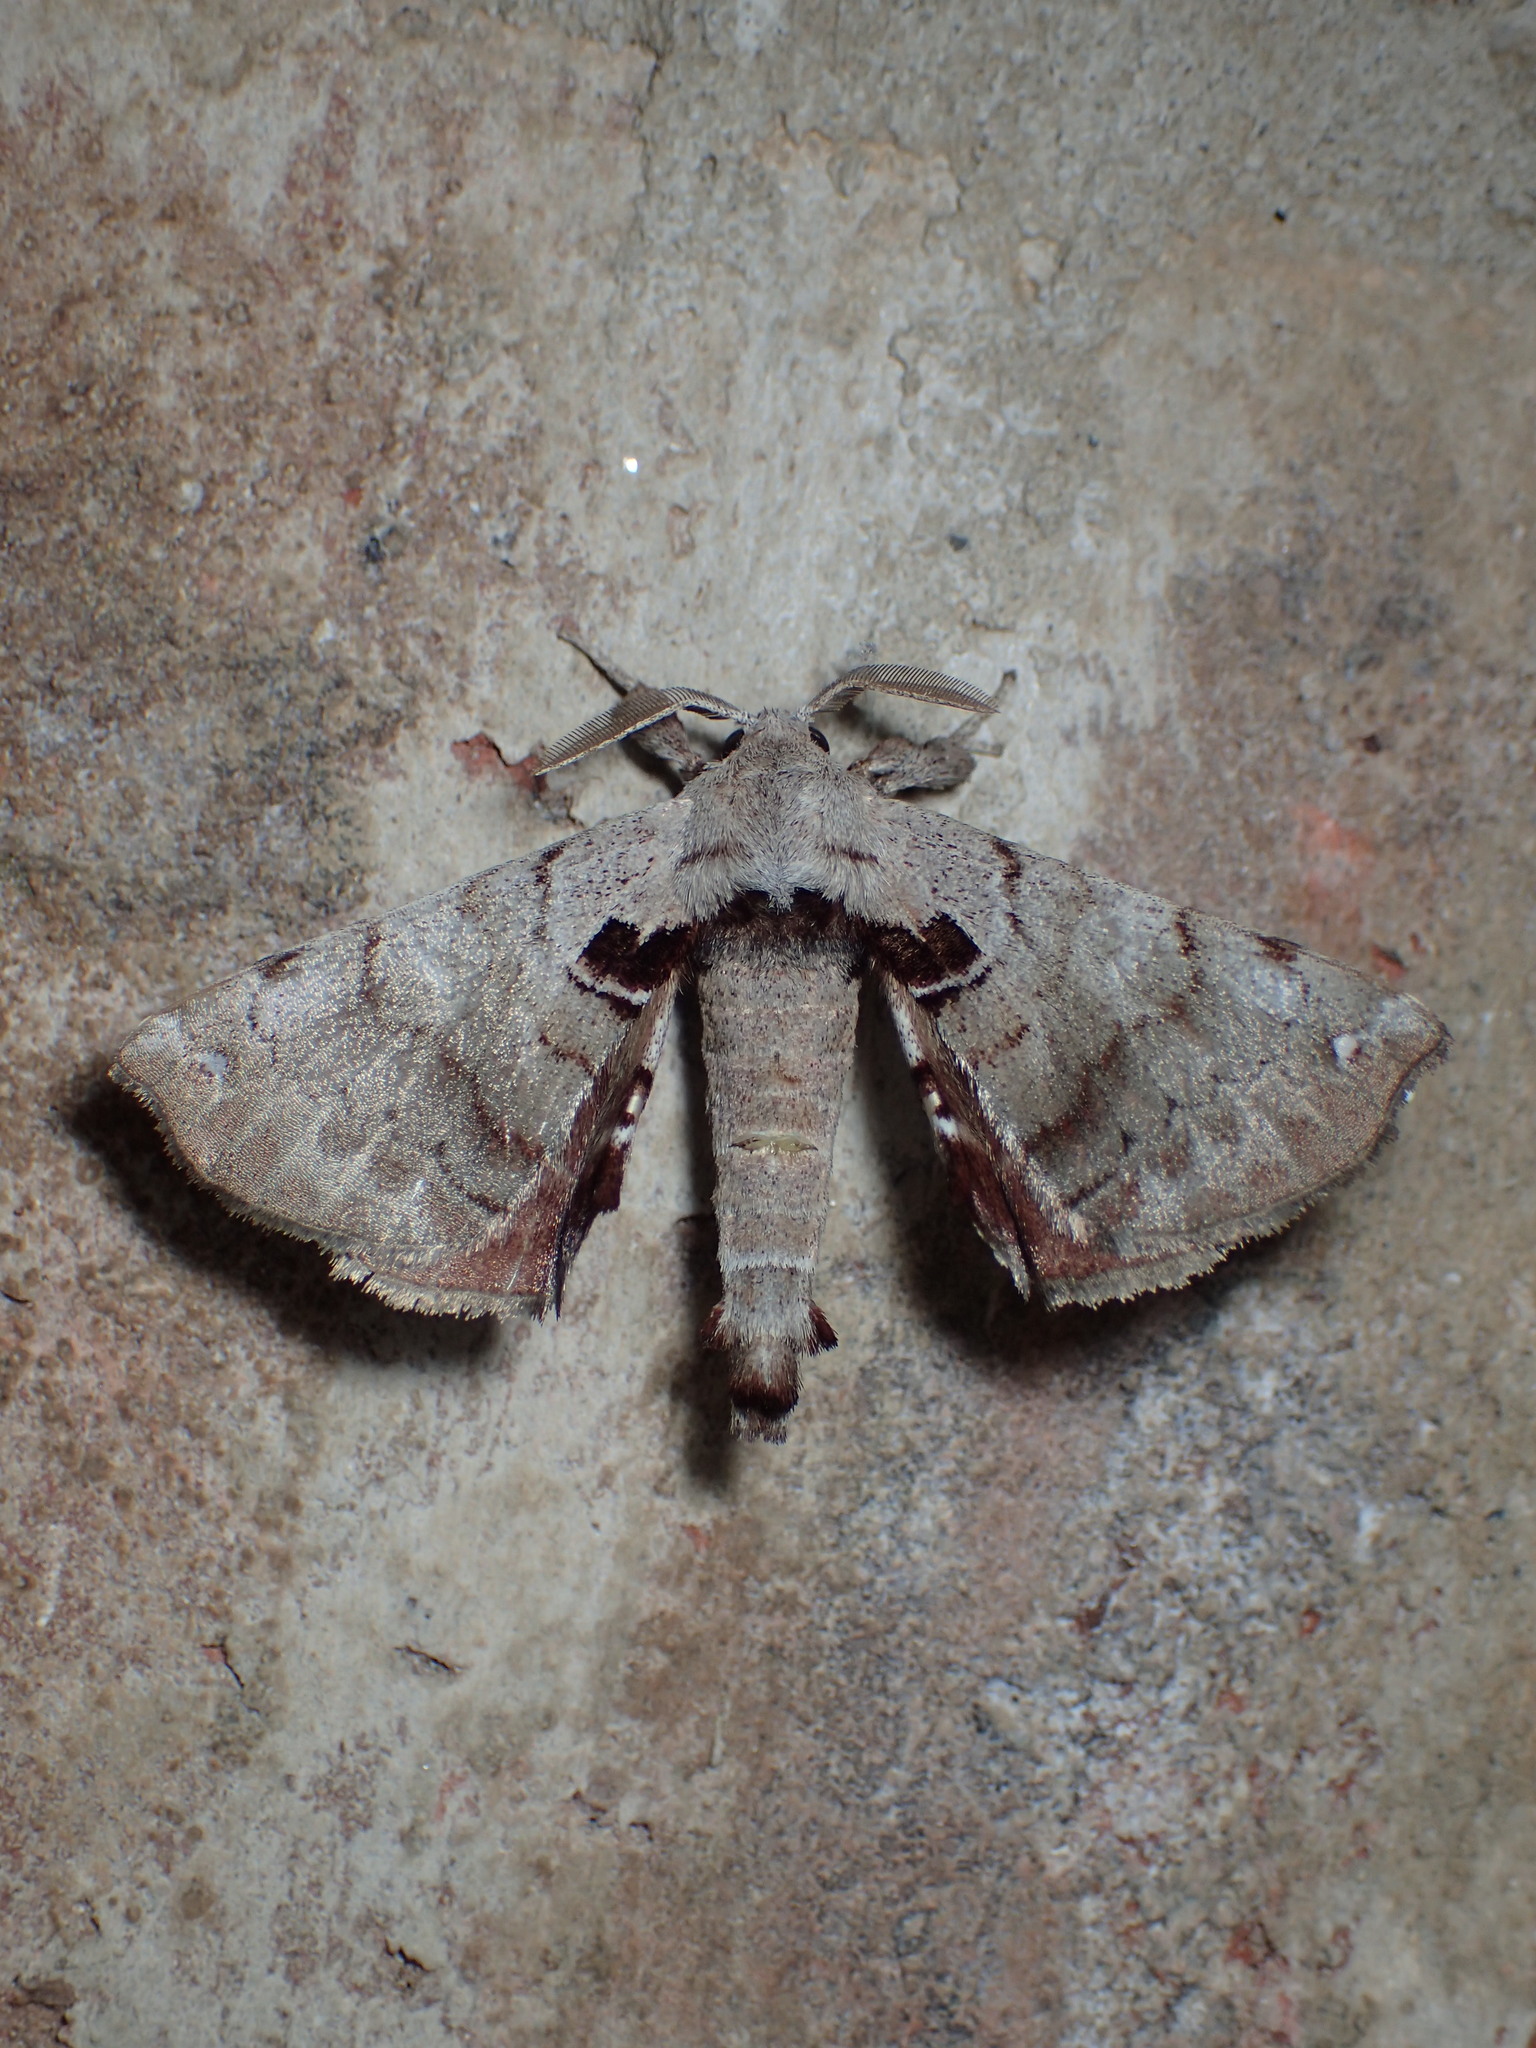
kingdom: Animalia
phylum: Arthropoda
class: Insecta
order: Lepidoptera
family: Apatelodidae
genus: Hygrochroa
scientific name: Hygrochroa Apatelodes torrefacta
